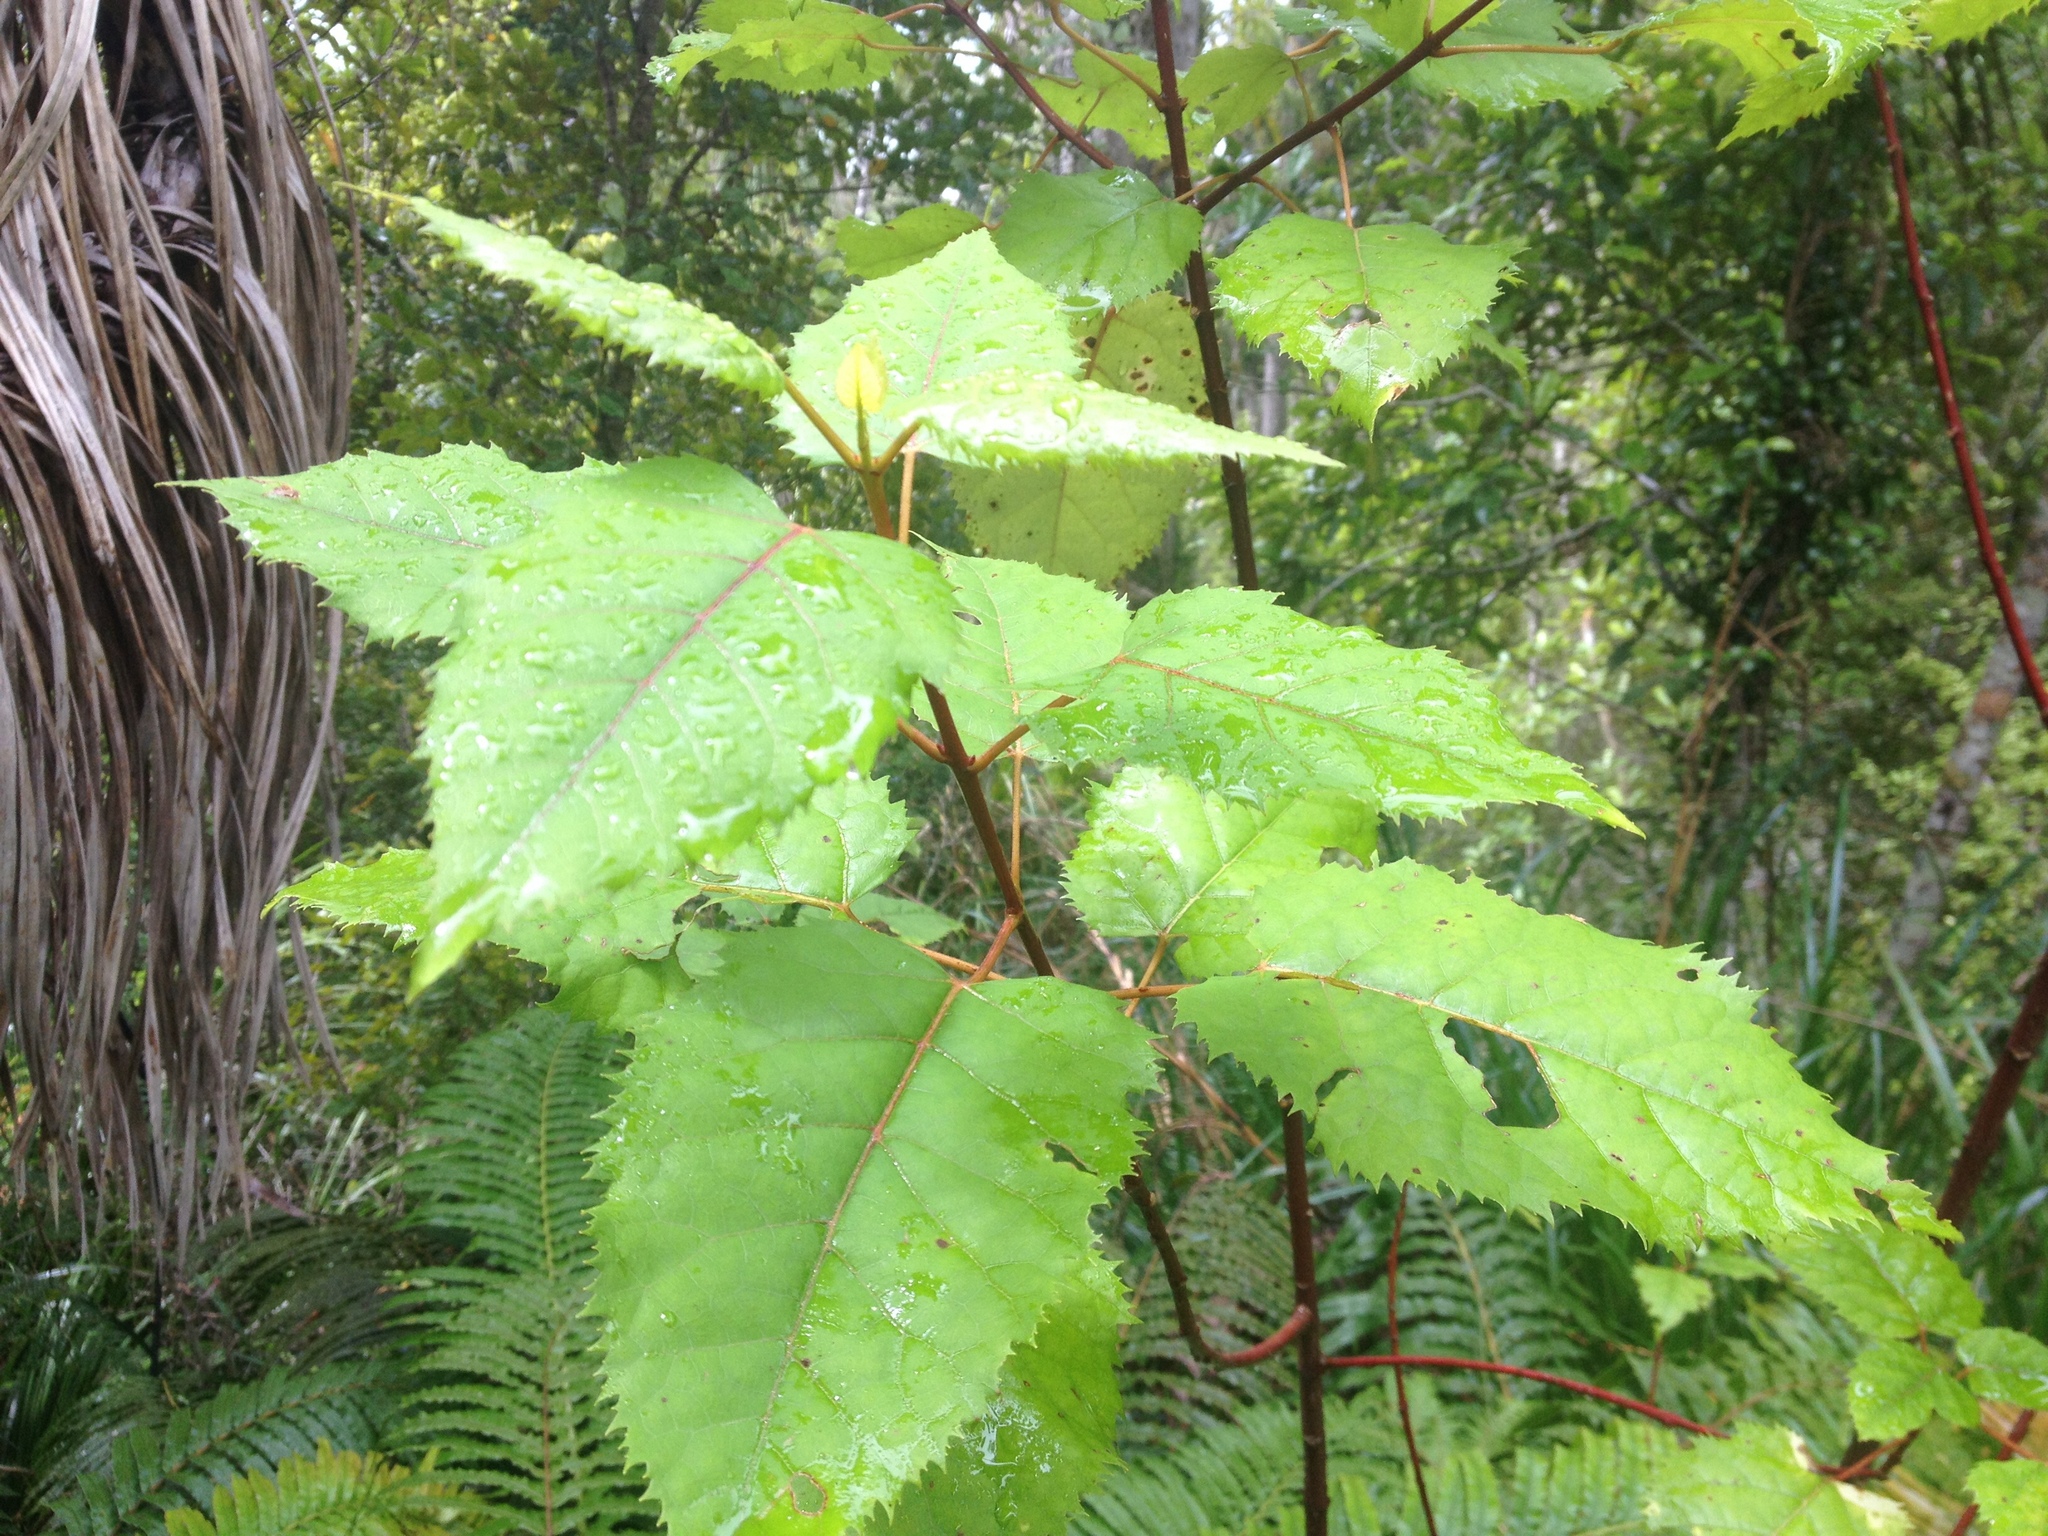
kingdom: Plantae
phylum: Tracheophyta
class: Magnoliopsida
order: Oxalidales
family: Elaeocarpaceae
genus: Aristotelia
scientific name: Aristotelia serrata
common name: New zealand wineberry
